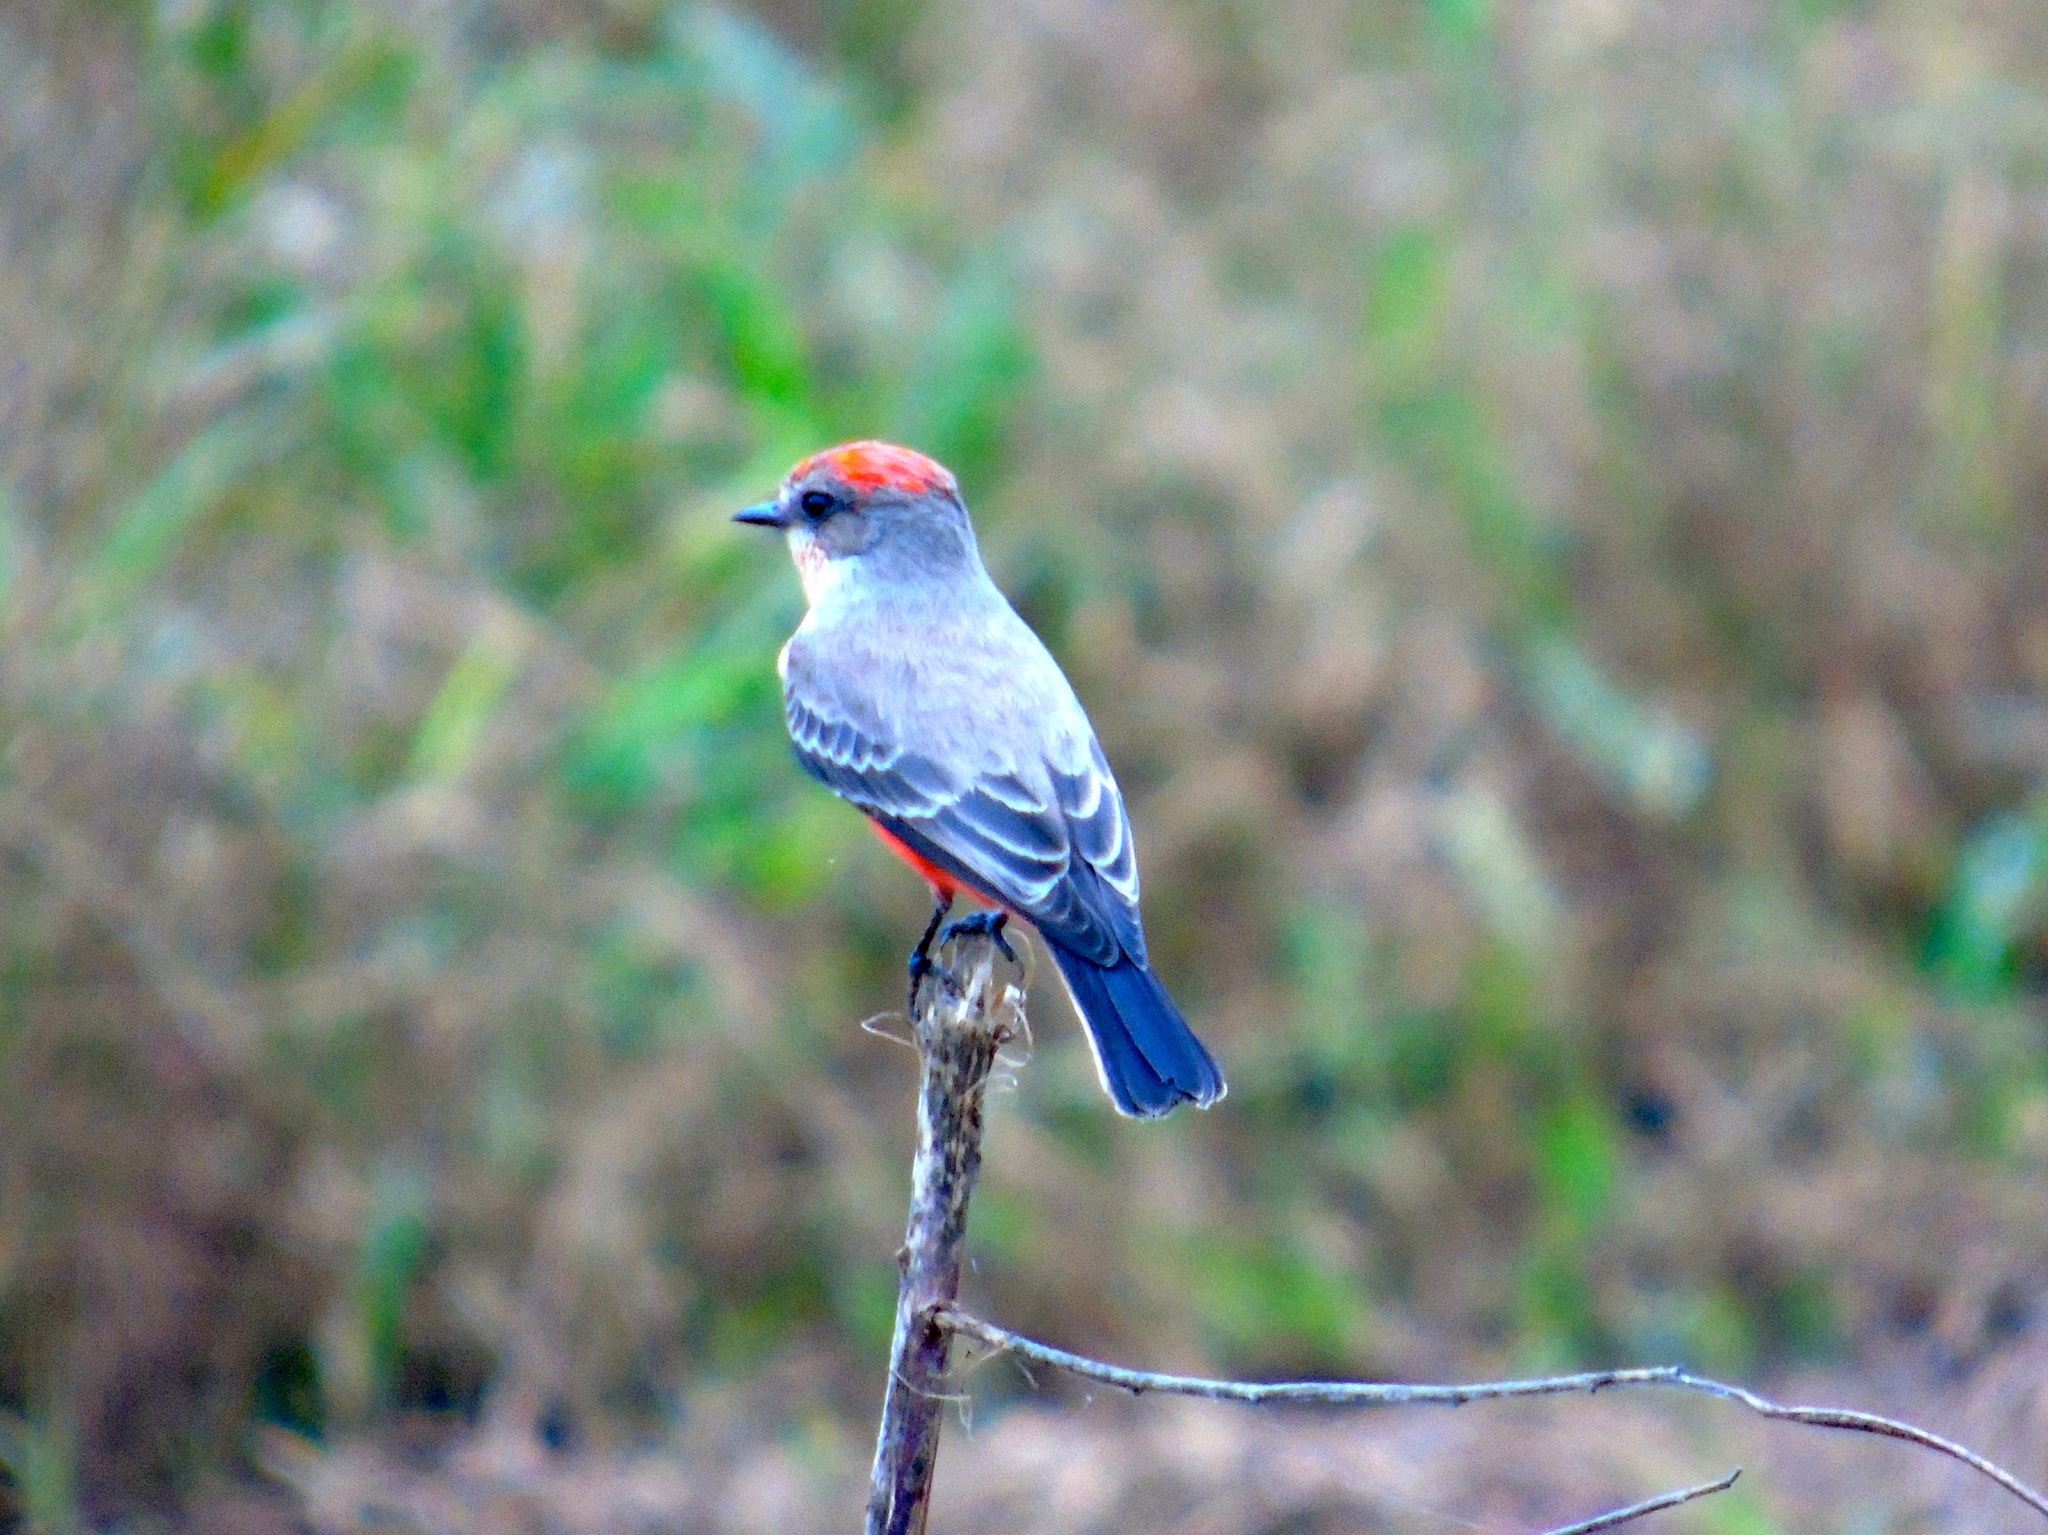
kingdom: Animalia
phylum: Chordata
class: Aves
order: Passeriformes
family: Tyrannidae
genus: Pyrocephalus
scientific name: Pyrocephalus rubinus
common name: Vermilion flycatcher
